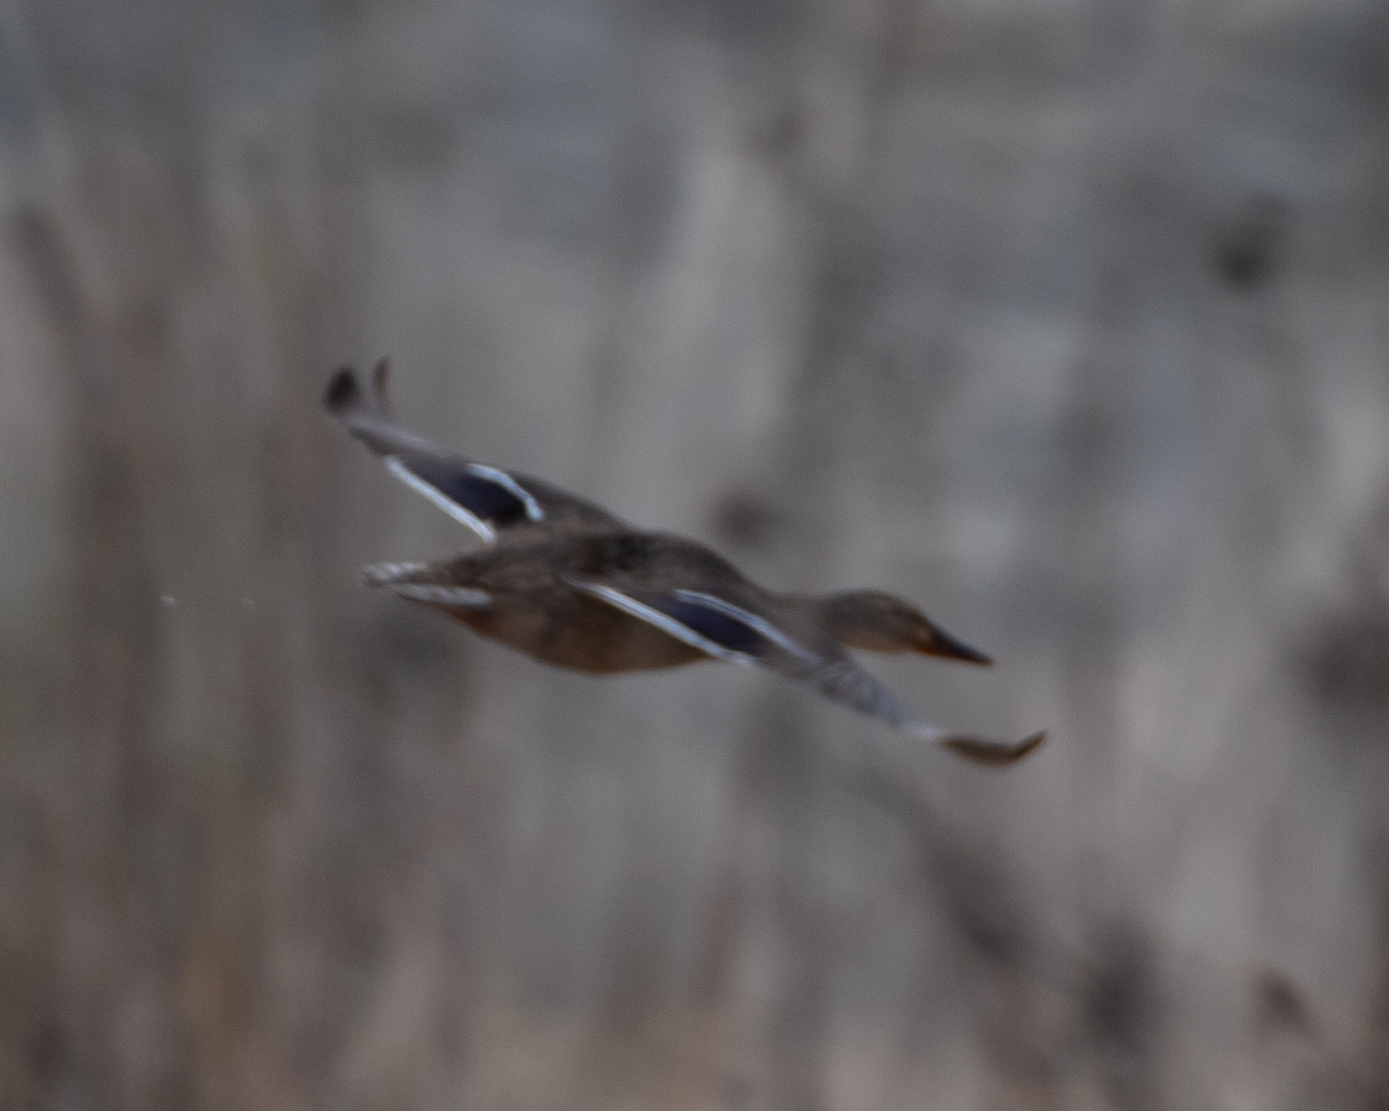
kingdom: Animalia
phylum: Chordata
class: Aves
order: Anseriformes
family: Anatidae
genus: Anas
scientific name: Anas platyrhynchos
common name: Mallard
